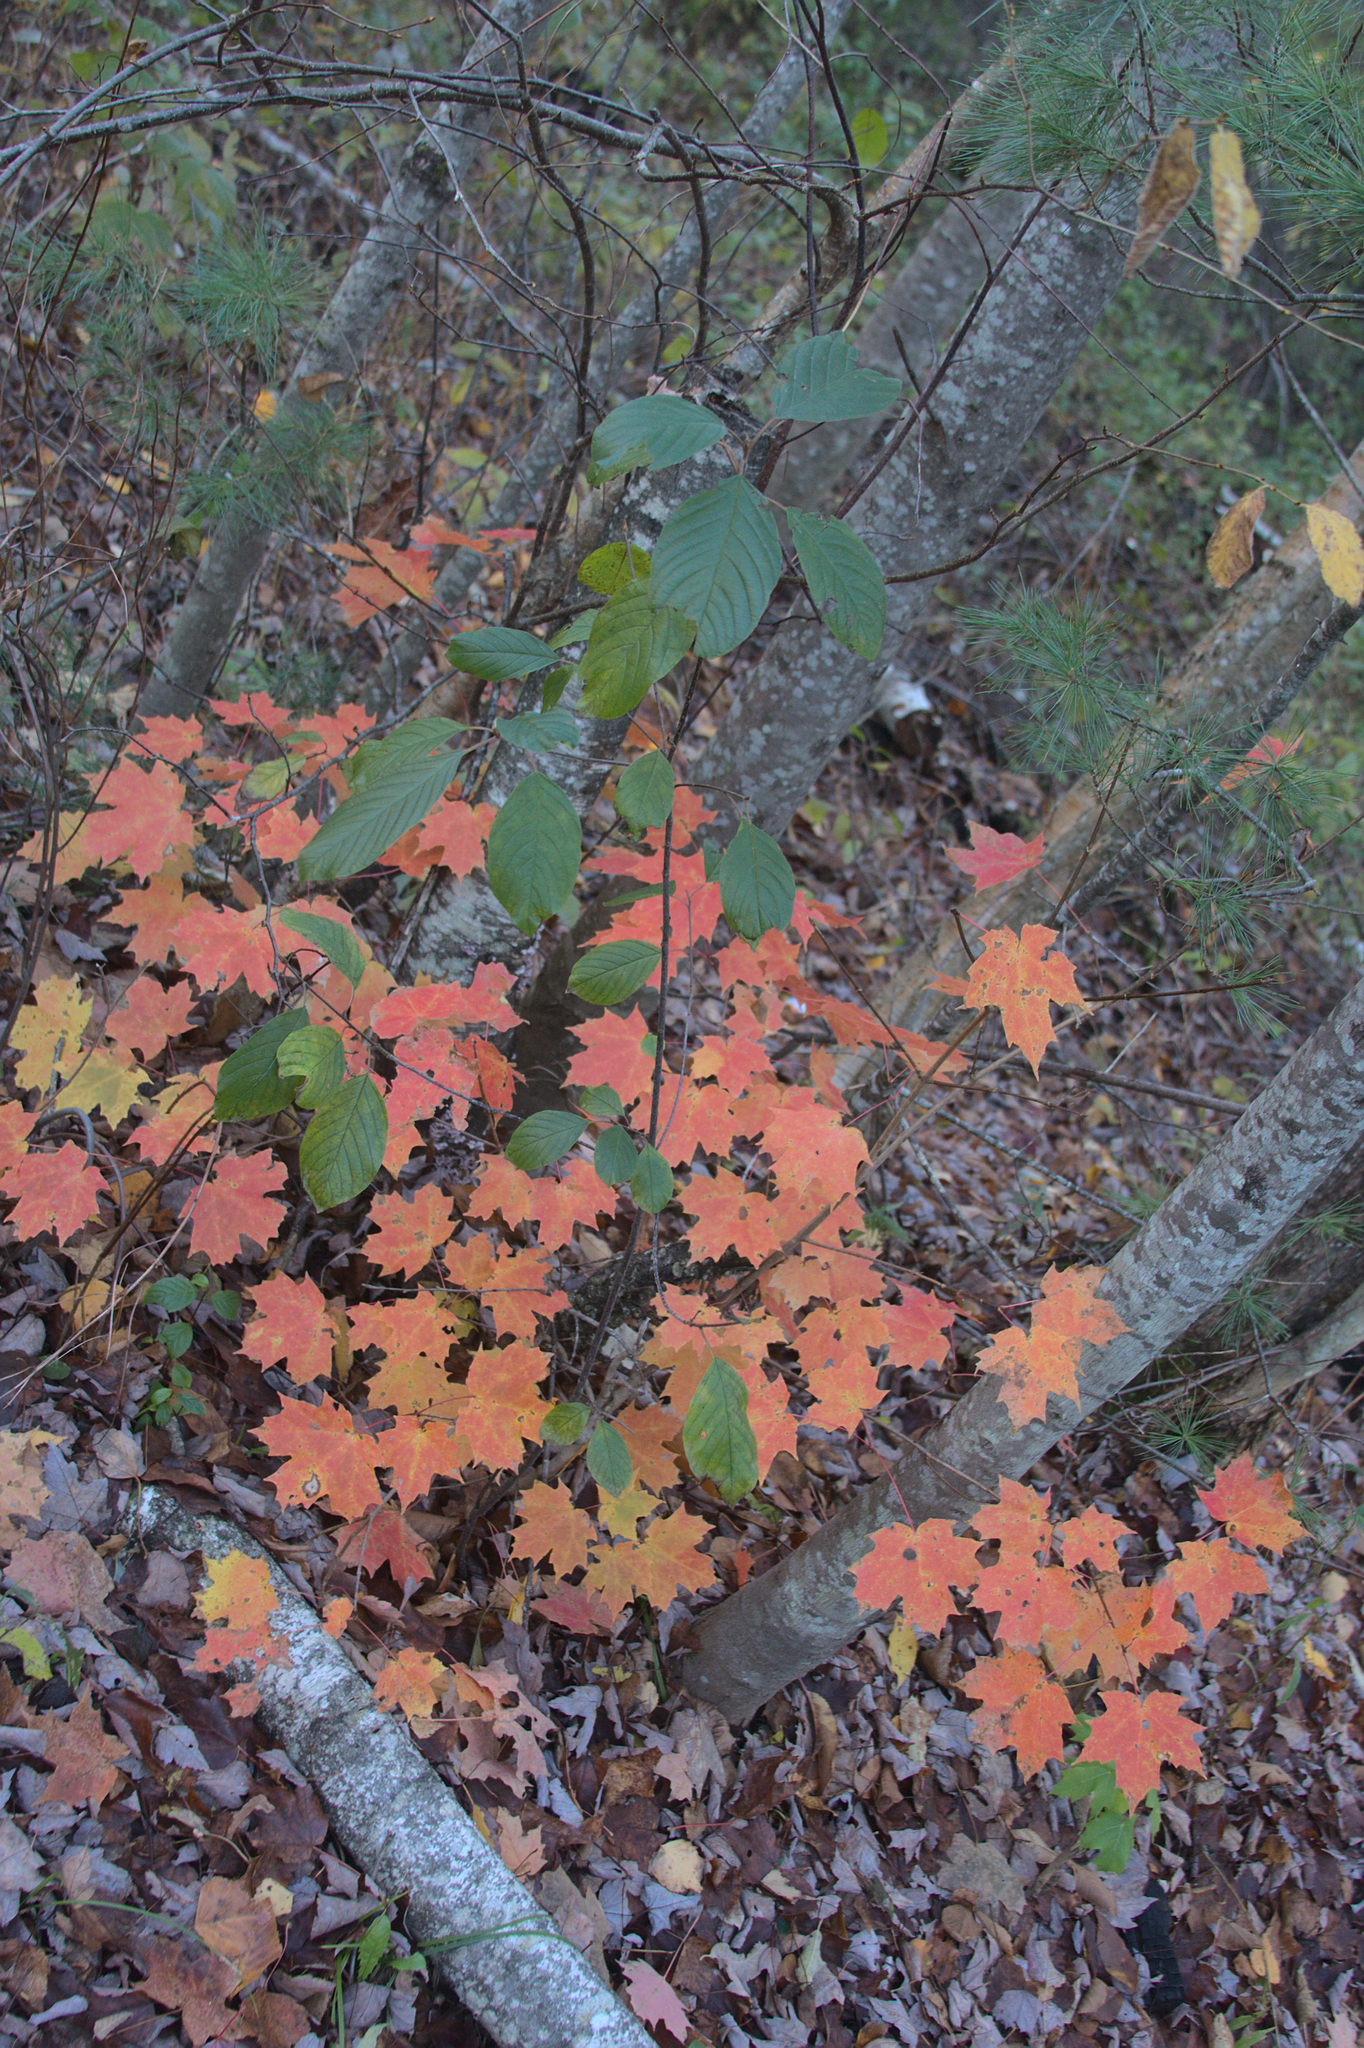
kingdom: Plantae
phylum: Tracheophyta
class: Magnoliopsida
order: Rosales
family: Rhamnaceae
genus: Frangula
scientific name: Frangula alnus
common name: Alder buckthorn
